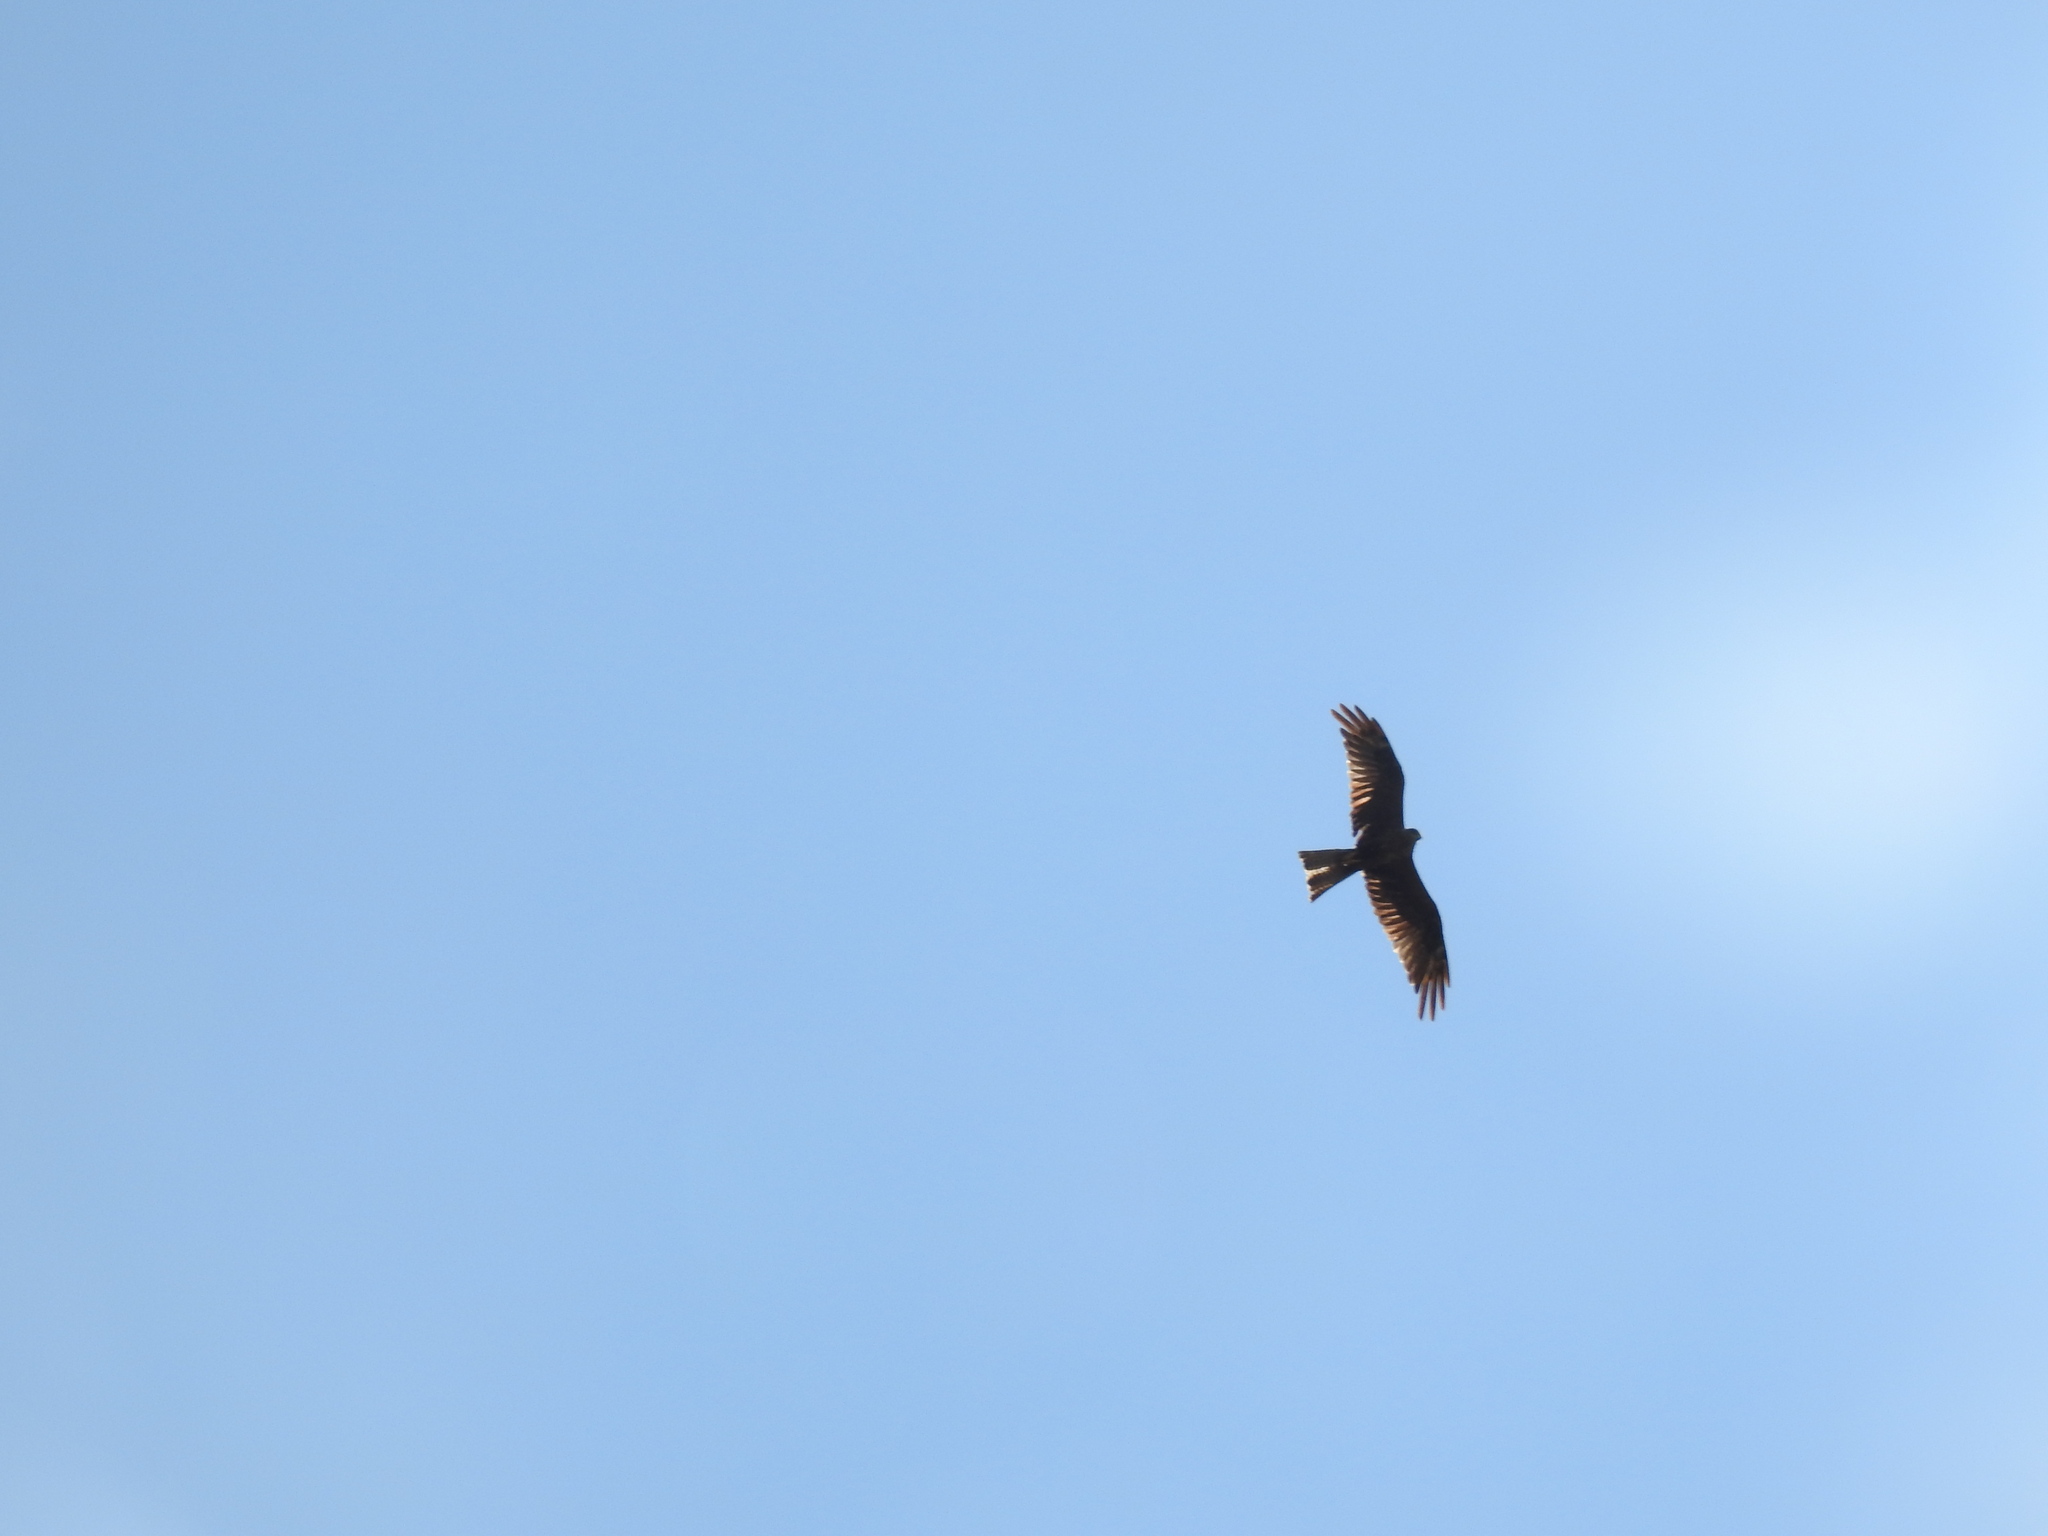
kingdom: Animalia
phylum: Chordata
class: Aves
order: Accipitriformes
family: Accipitridae
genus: Milvus
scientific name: Milvus migrans
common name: Black kite
